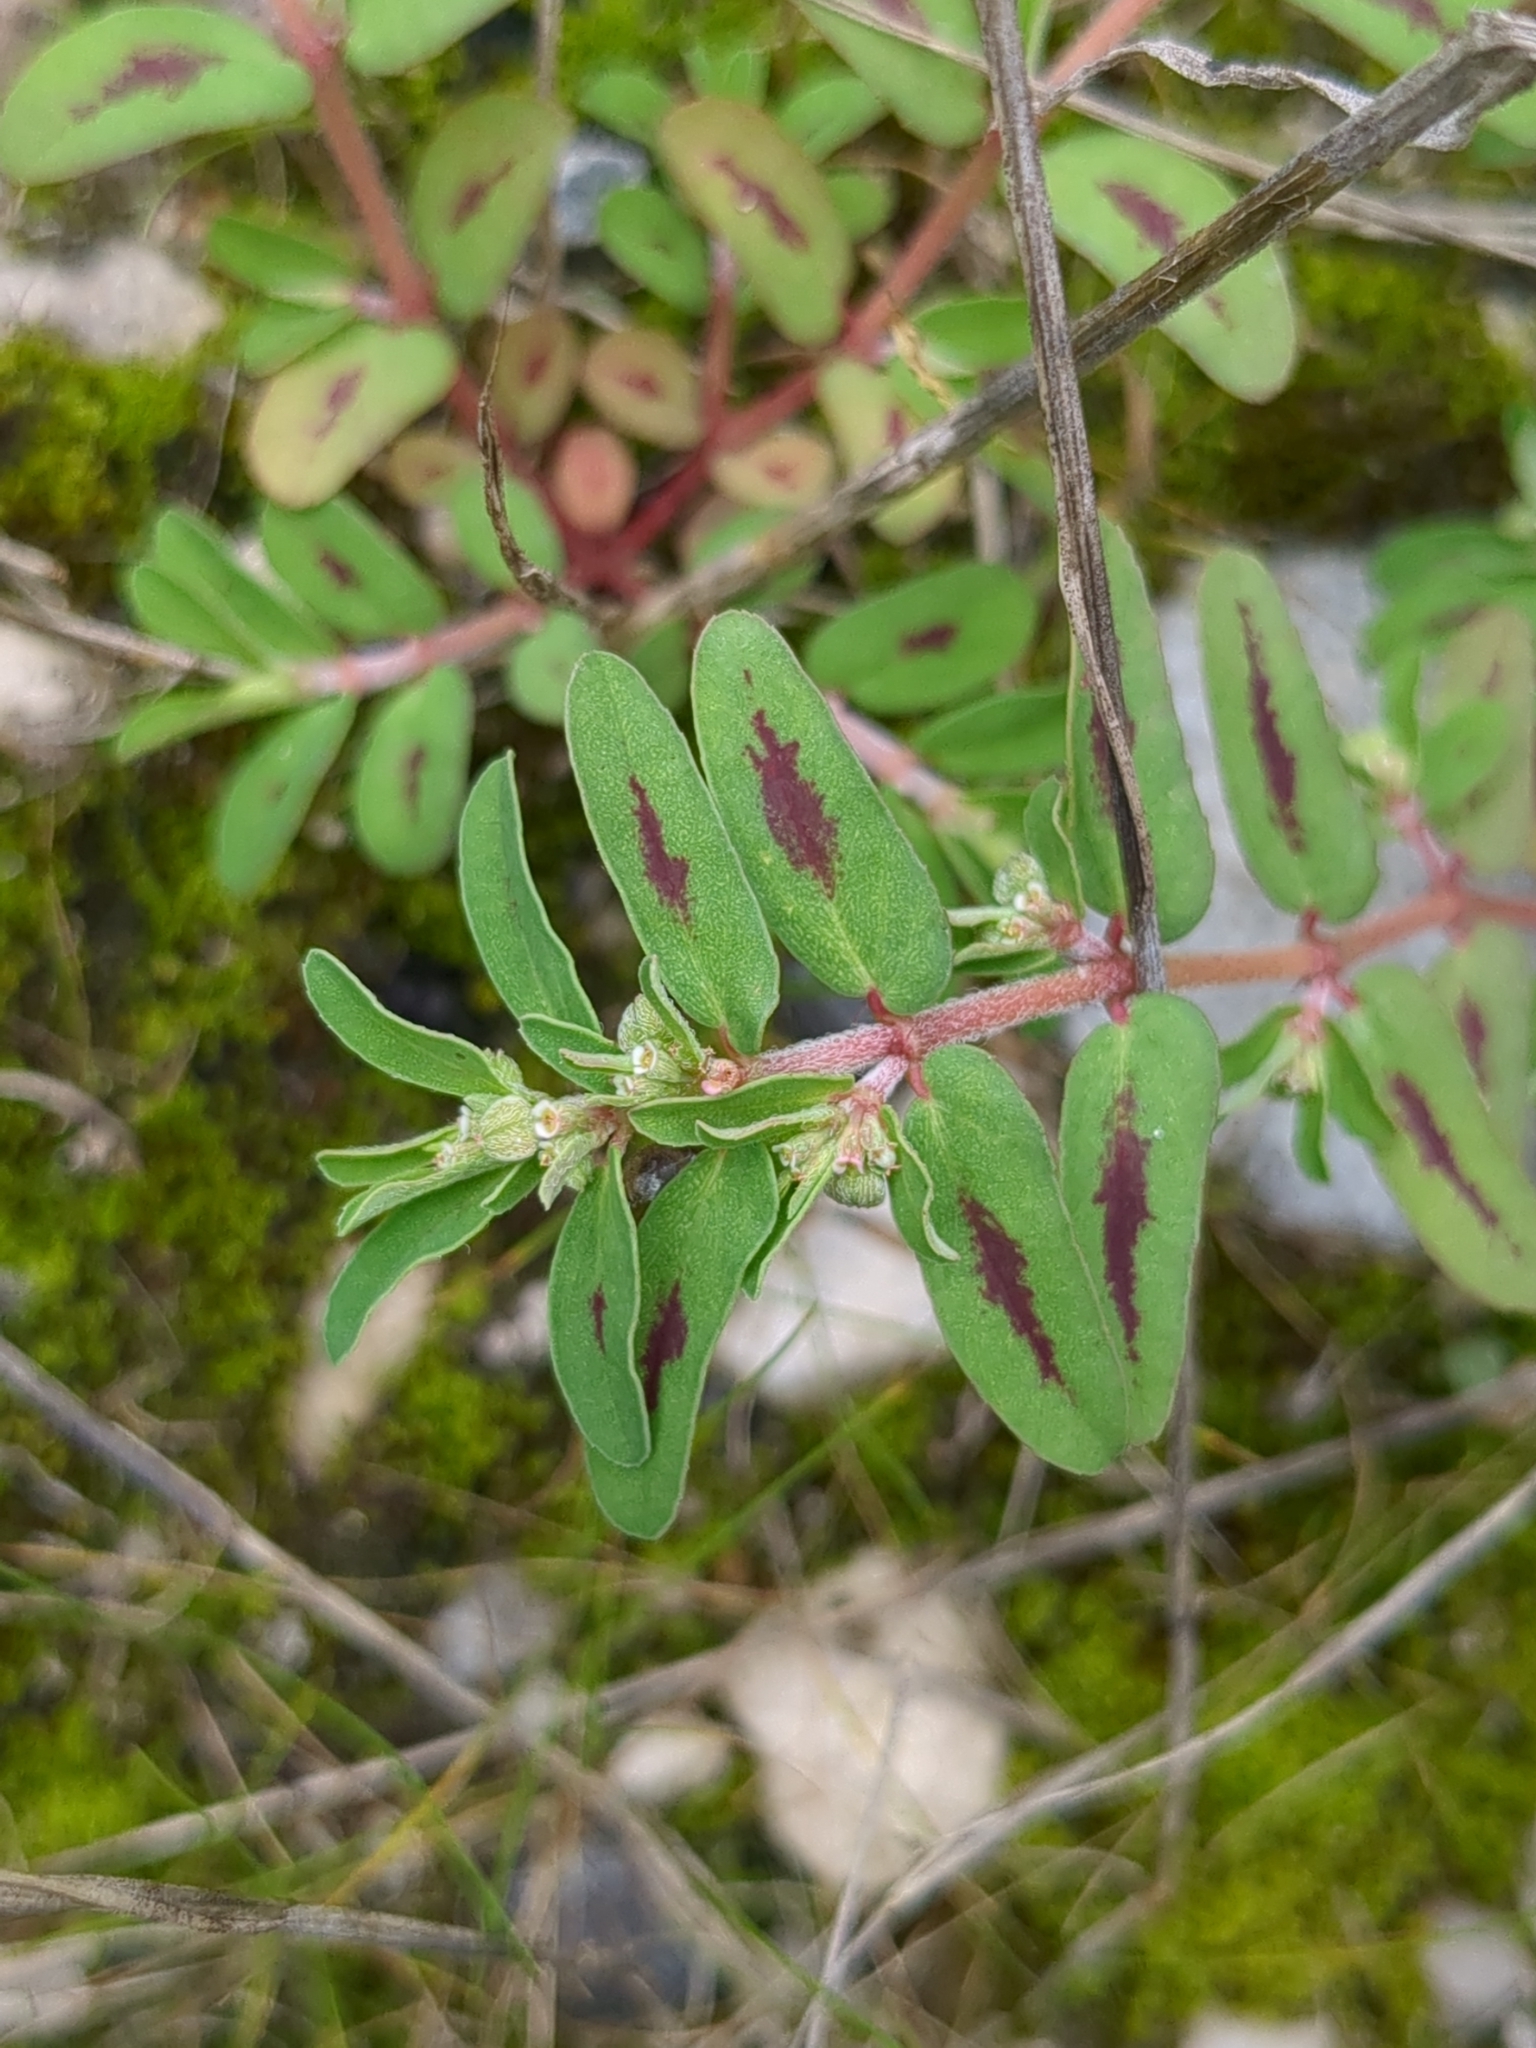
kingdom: Plantae
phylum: Tracheophyta
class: Magnoliopsida
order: Malpighiales
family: Euphorbiaceae
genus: Euphorbia
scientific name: Euphorbia maculata
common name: Spotted spurge
